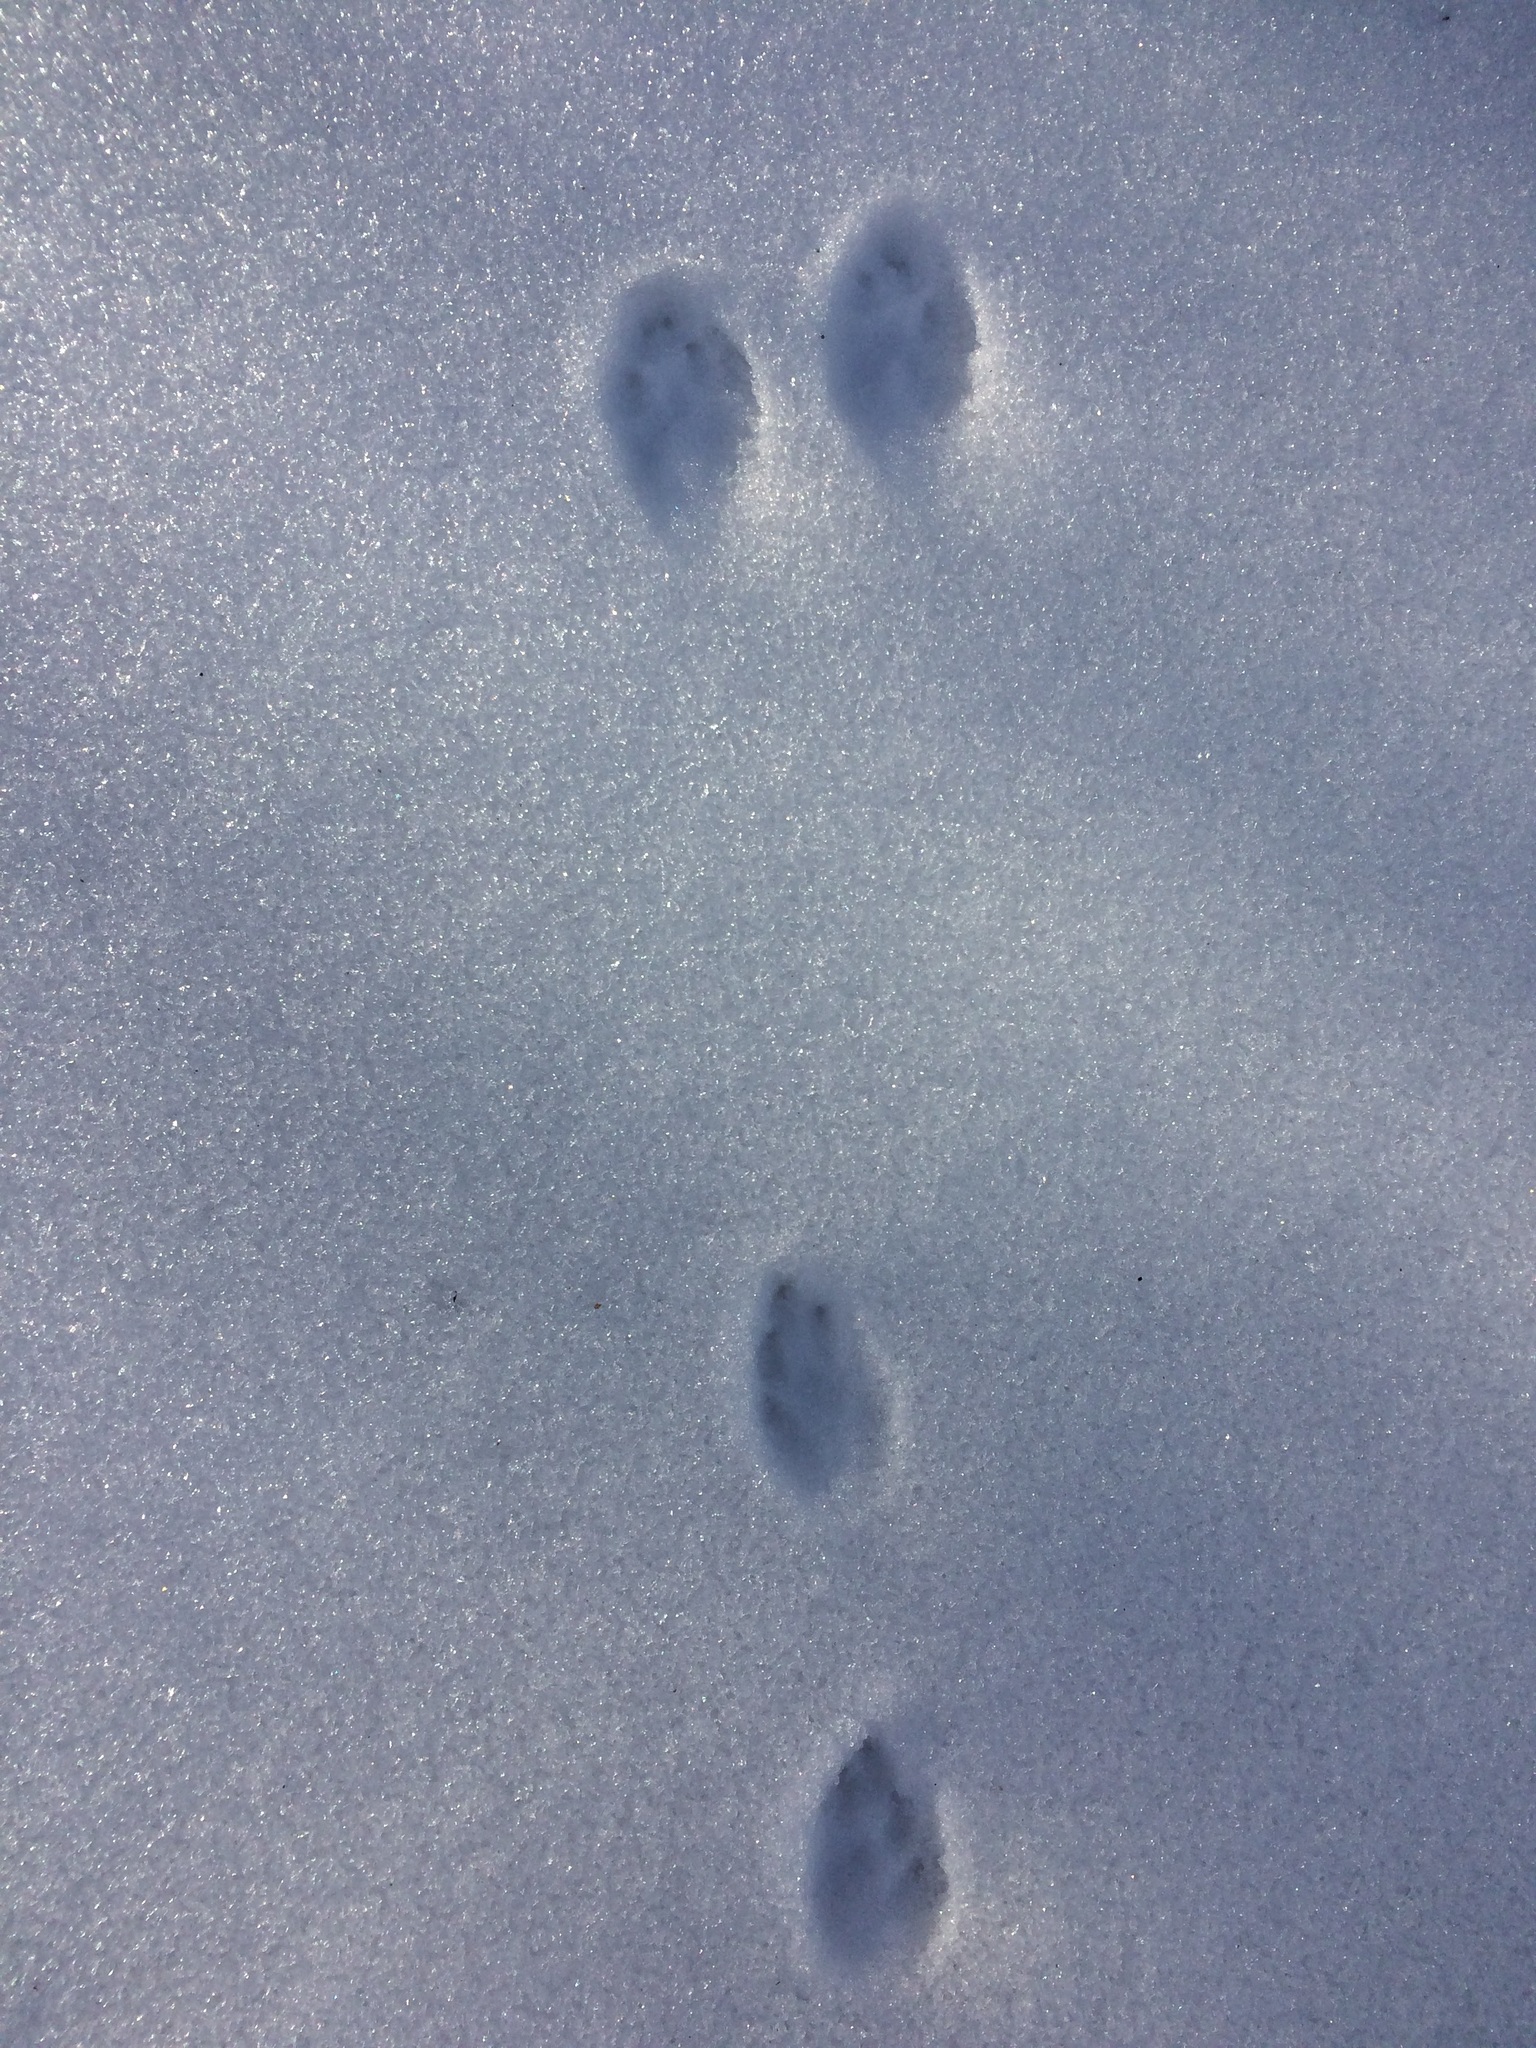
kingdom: Animalia
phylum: Chordata
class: Mammalia
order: Lagomorpha
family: Leporidae
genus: Sylvilagus
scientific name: Sylvilagus floridanus
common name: Eastern cottontail
